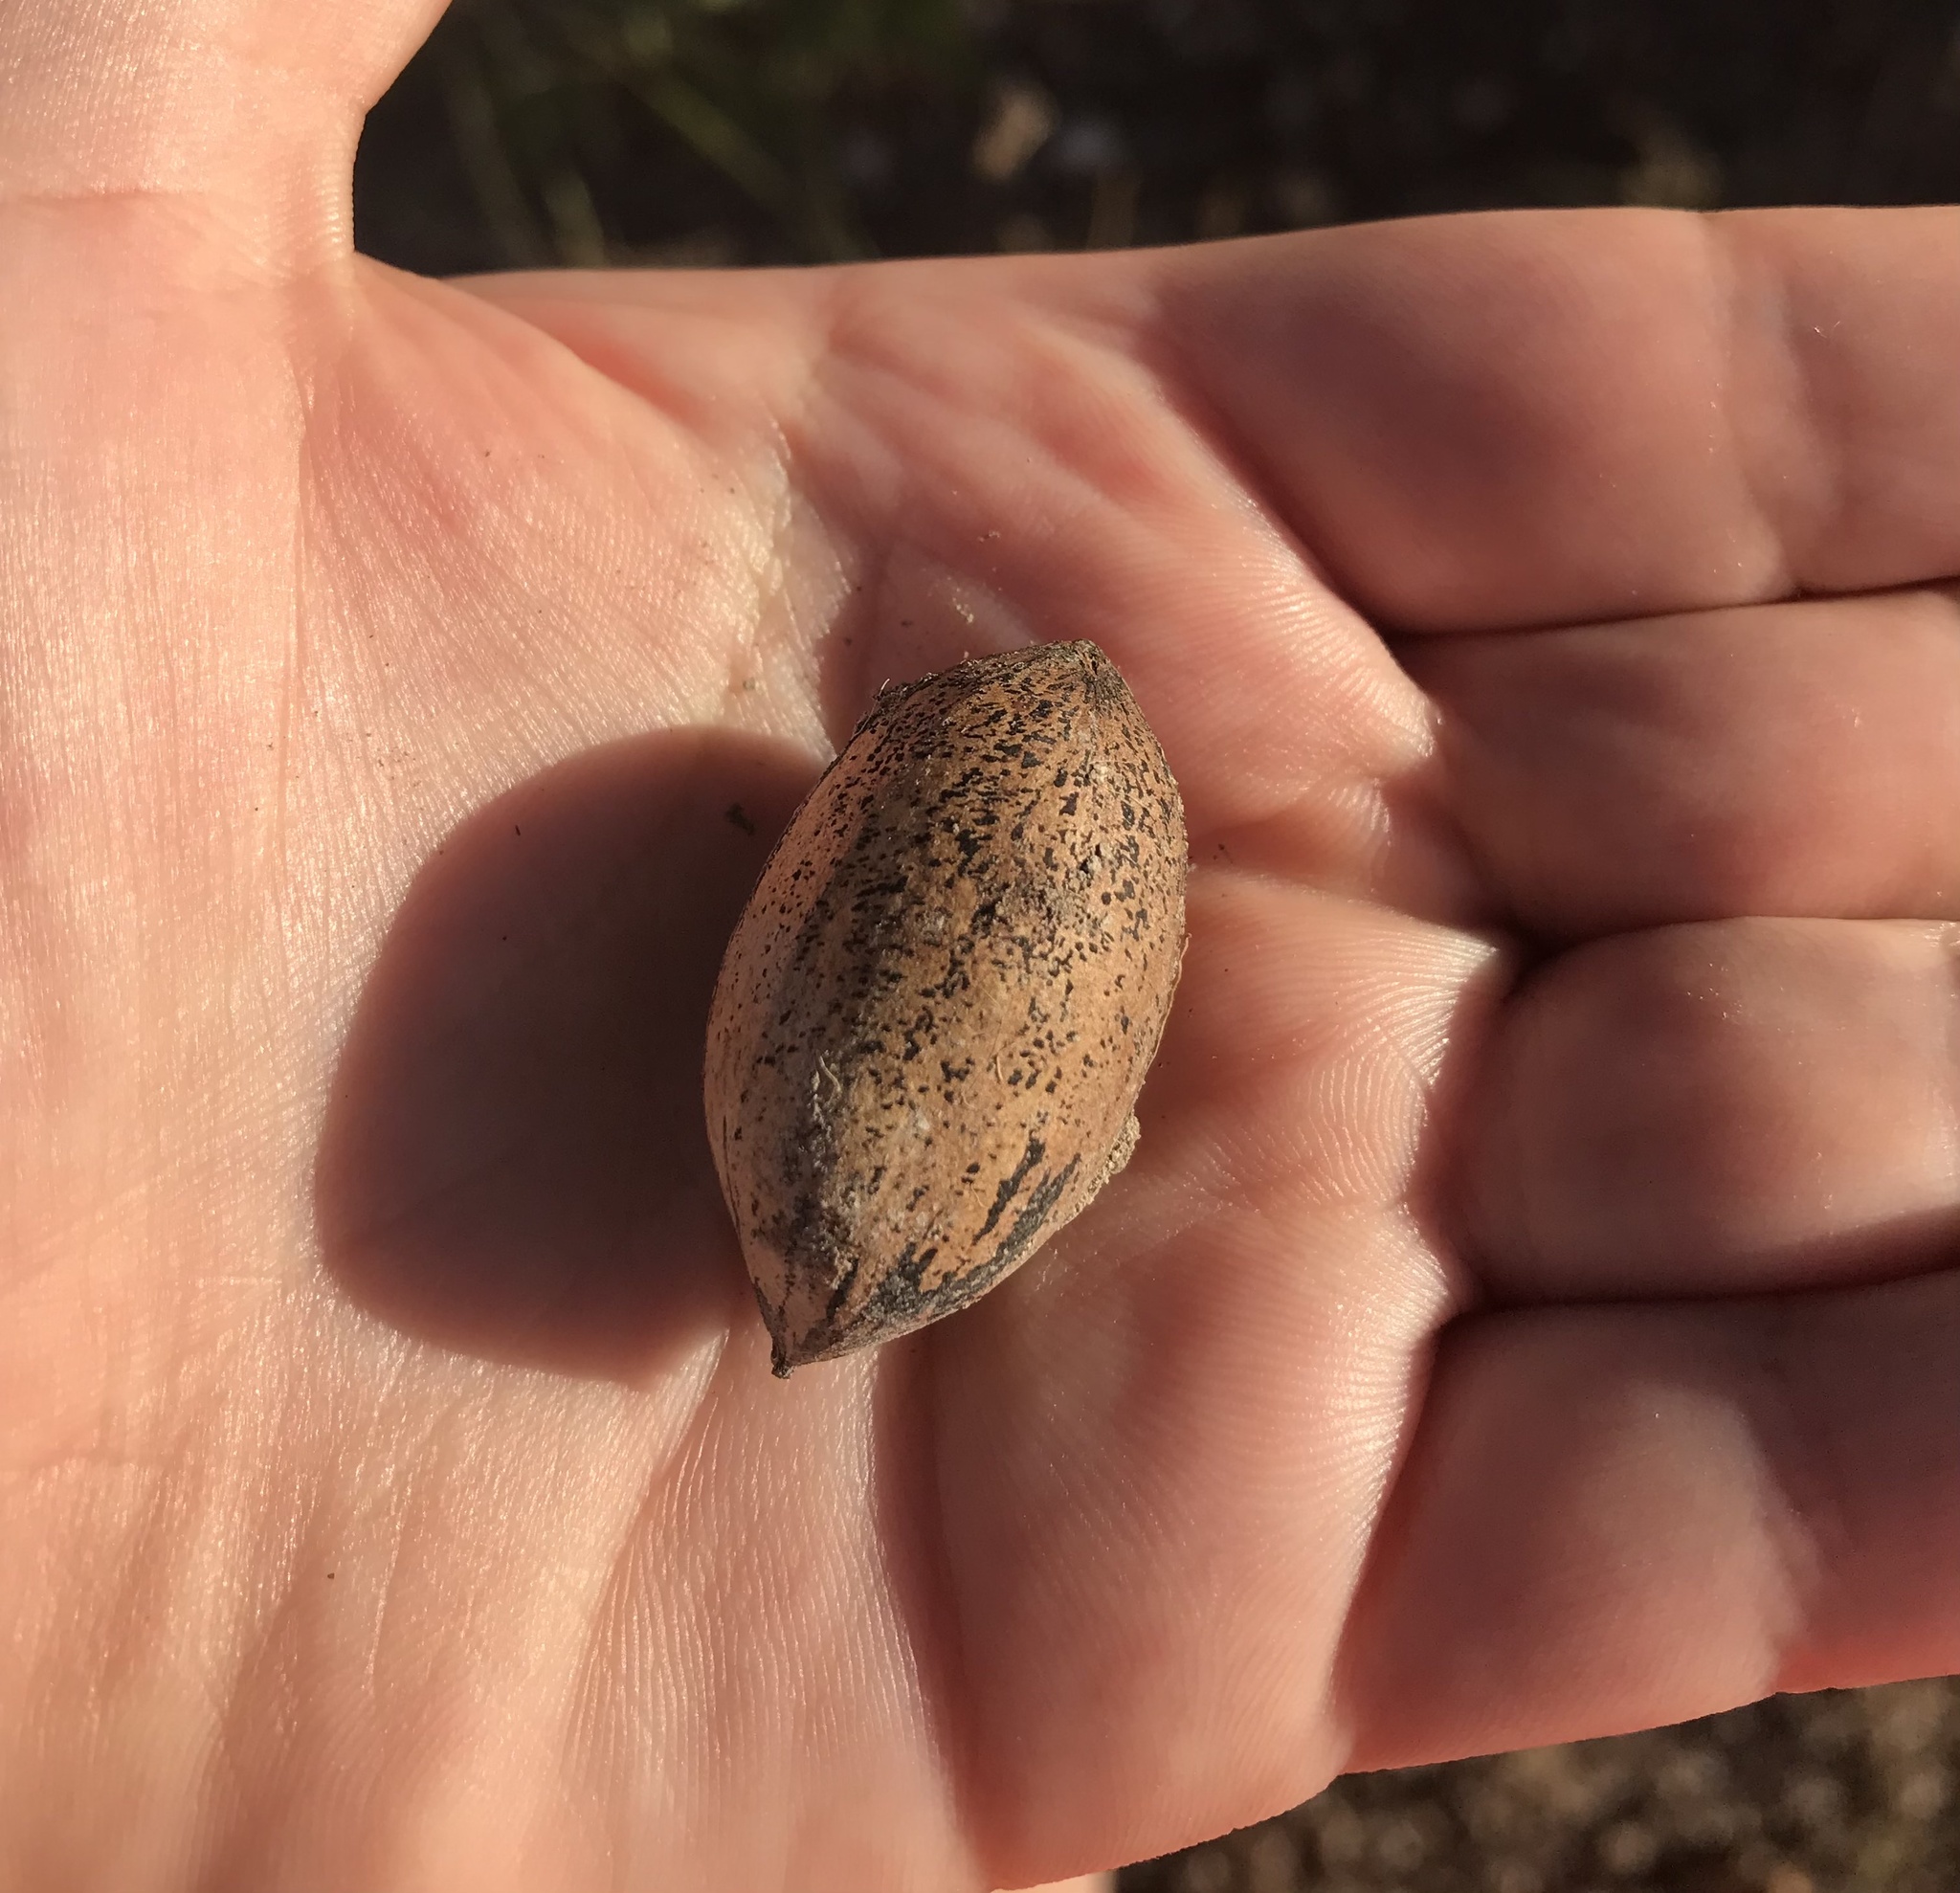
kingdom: Plantae
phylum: Tracheophyta
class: Magnoliopsida
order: Fagales
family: Juglandaceae
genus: Carya
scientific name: Carya illinoinensis
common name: Pecan
